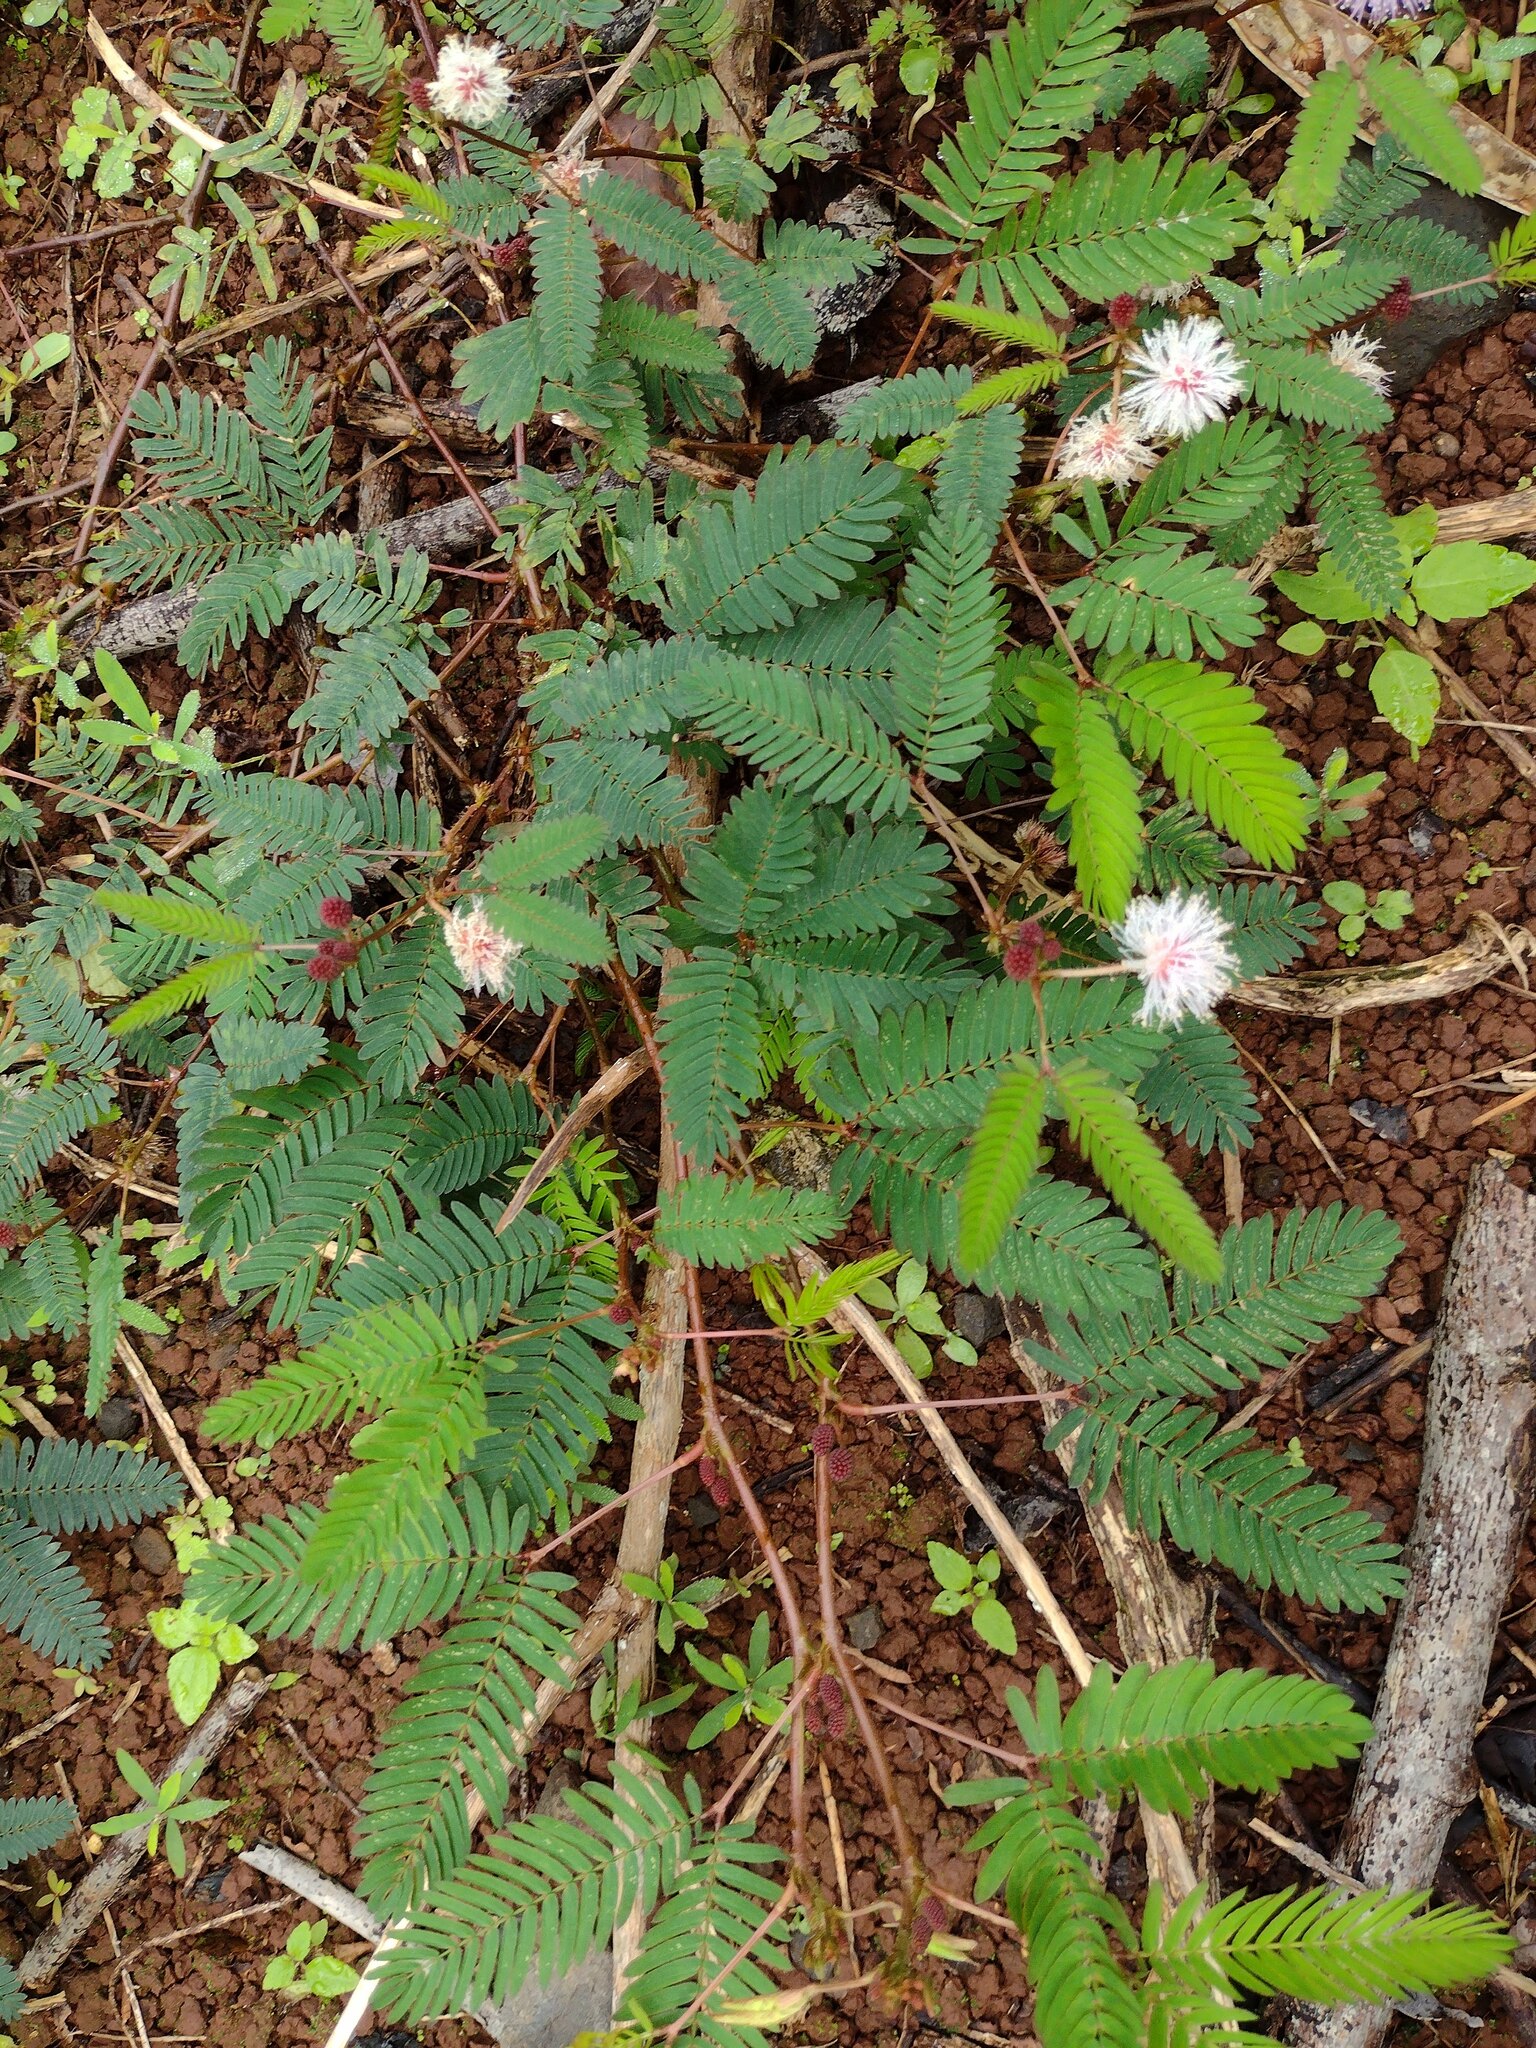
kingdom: Plantae
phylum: Tracheophyta
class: Magnoliopsida
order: Fabales
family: Fabaceae
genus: Mimosa
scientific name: Mimosa pudica
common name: Sensitive plant
